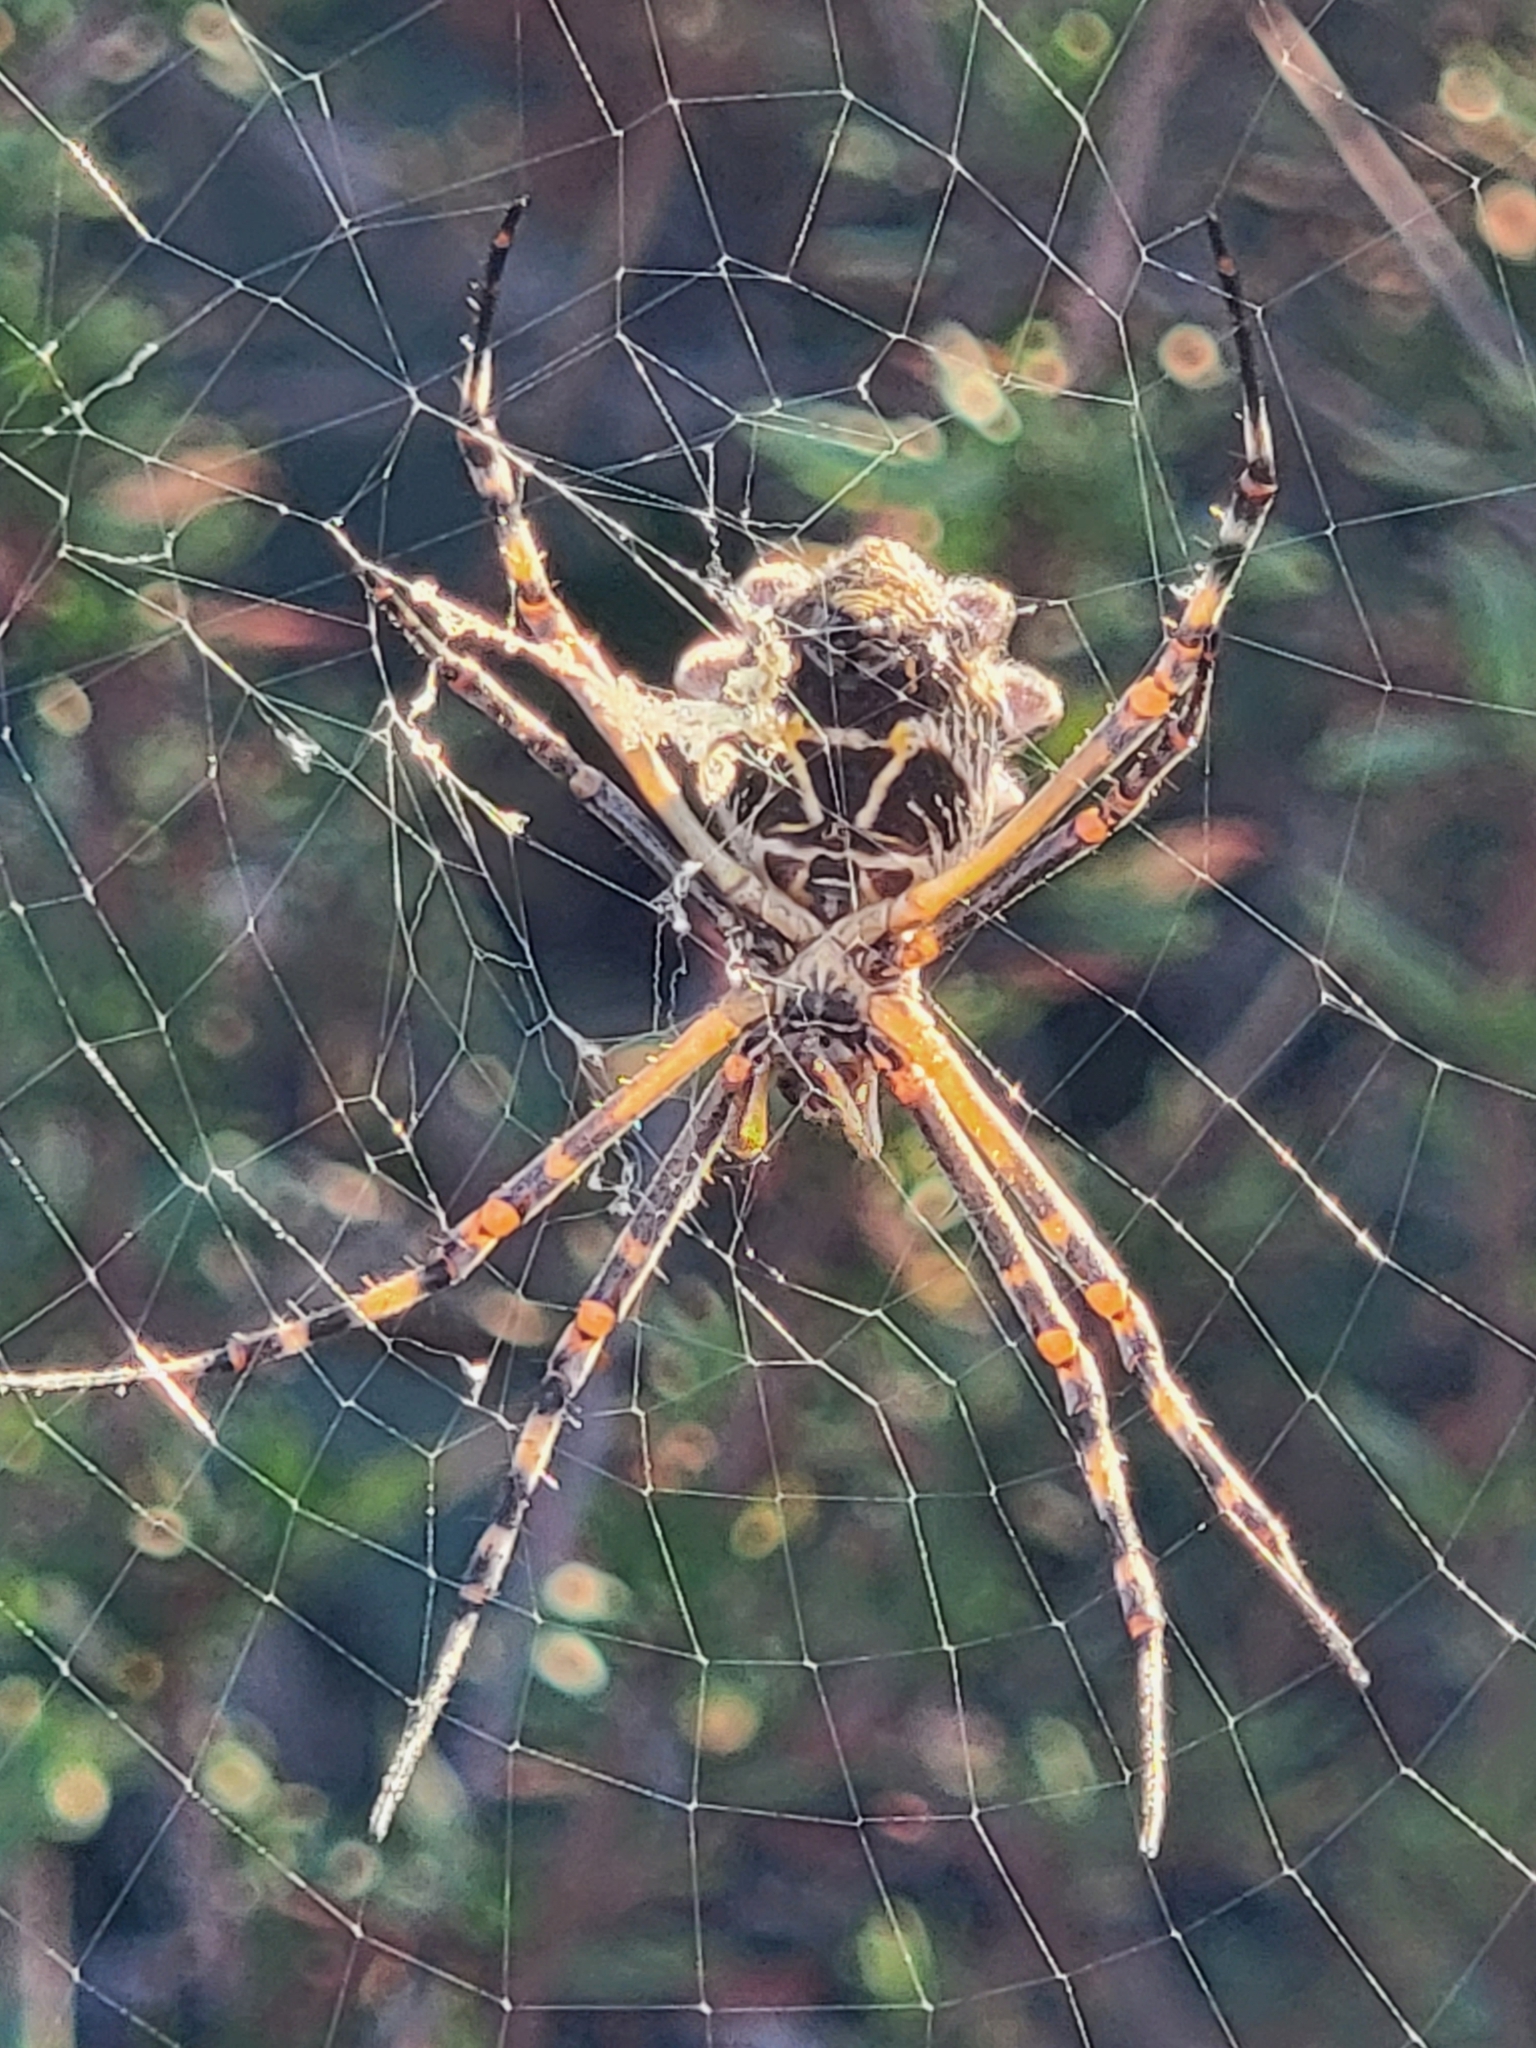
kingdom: Animalia
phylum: Arthropoda
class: Arachnida
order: Araneae
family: Araneidae
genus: Argiope
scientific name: Argiope argentata
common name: Orb weavers
